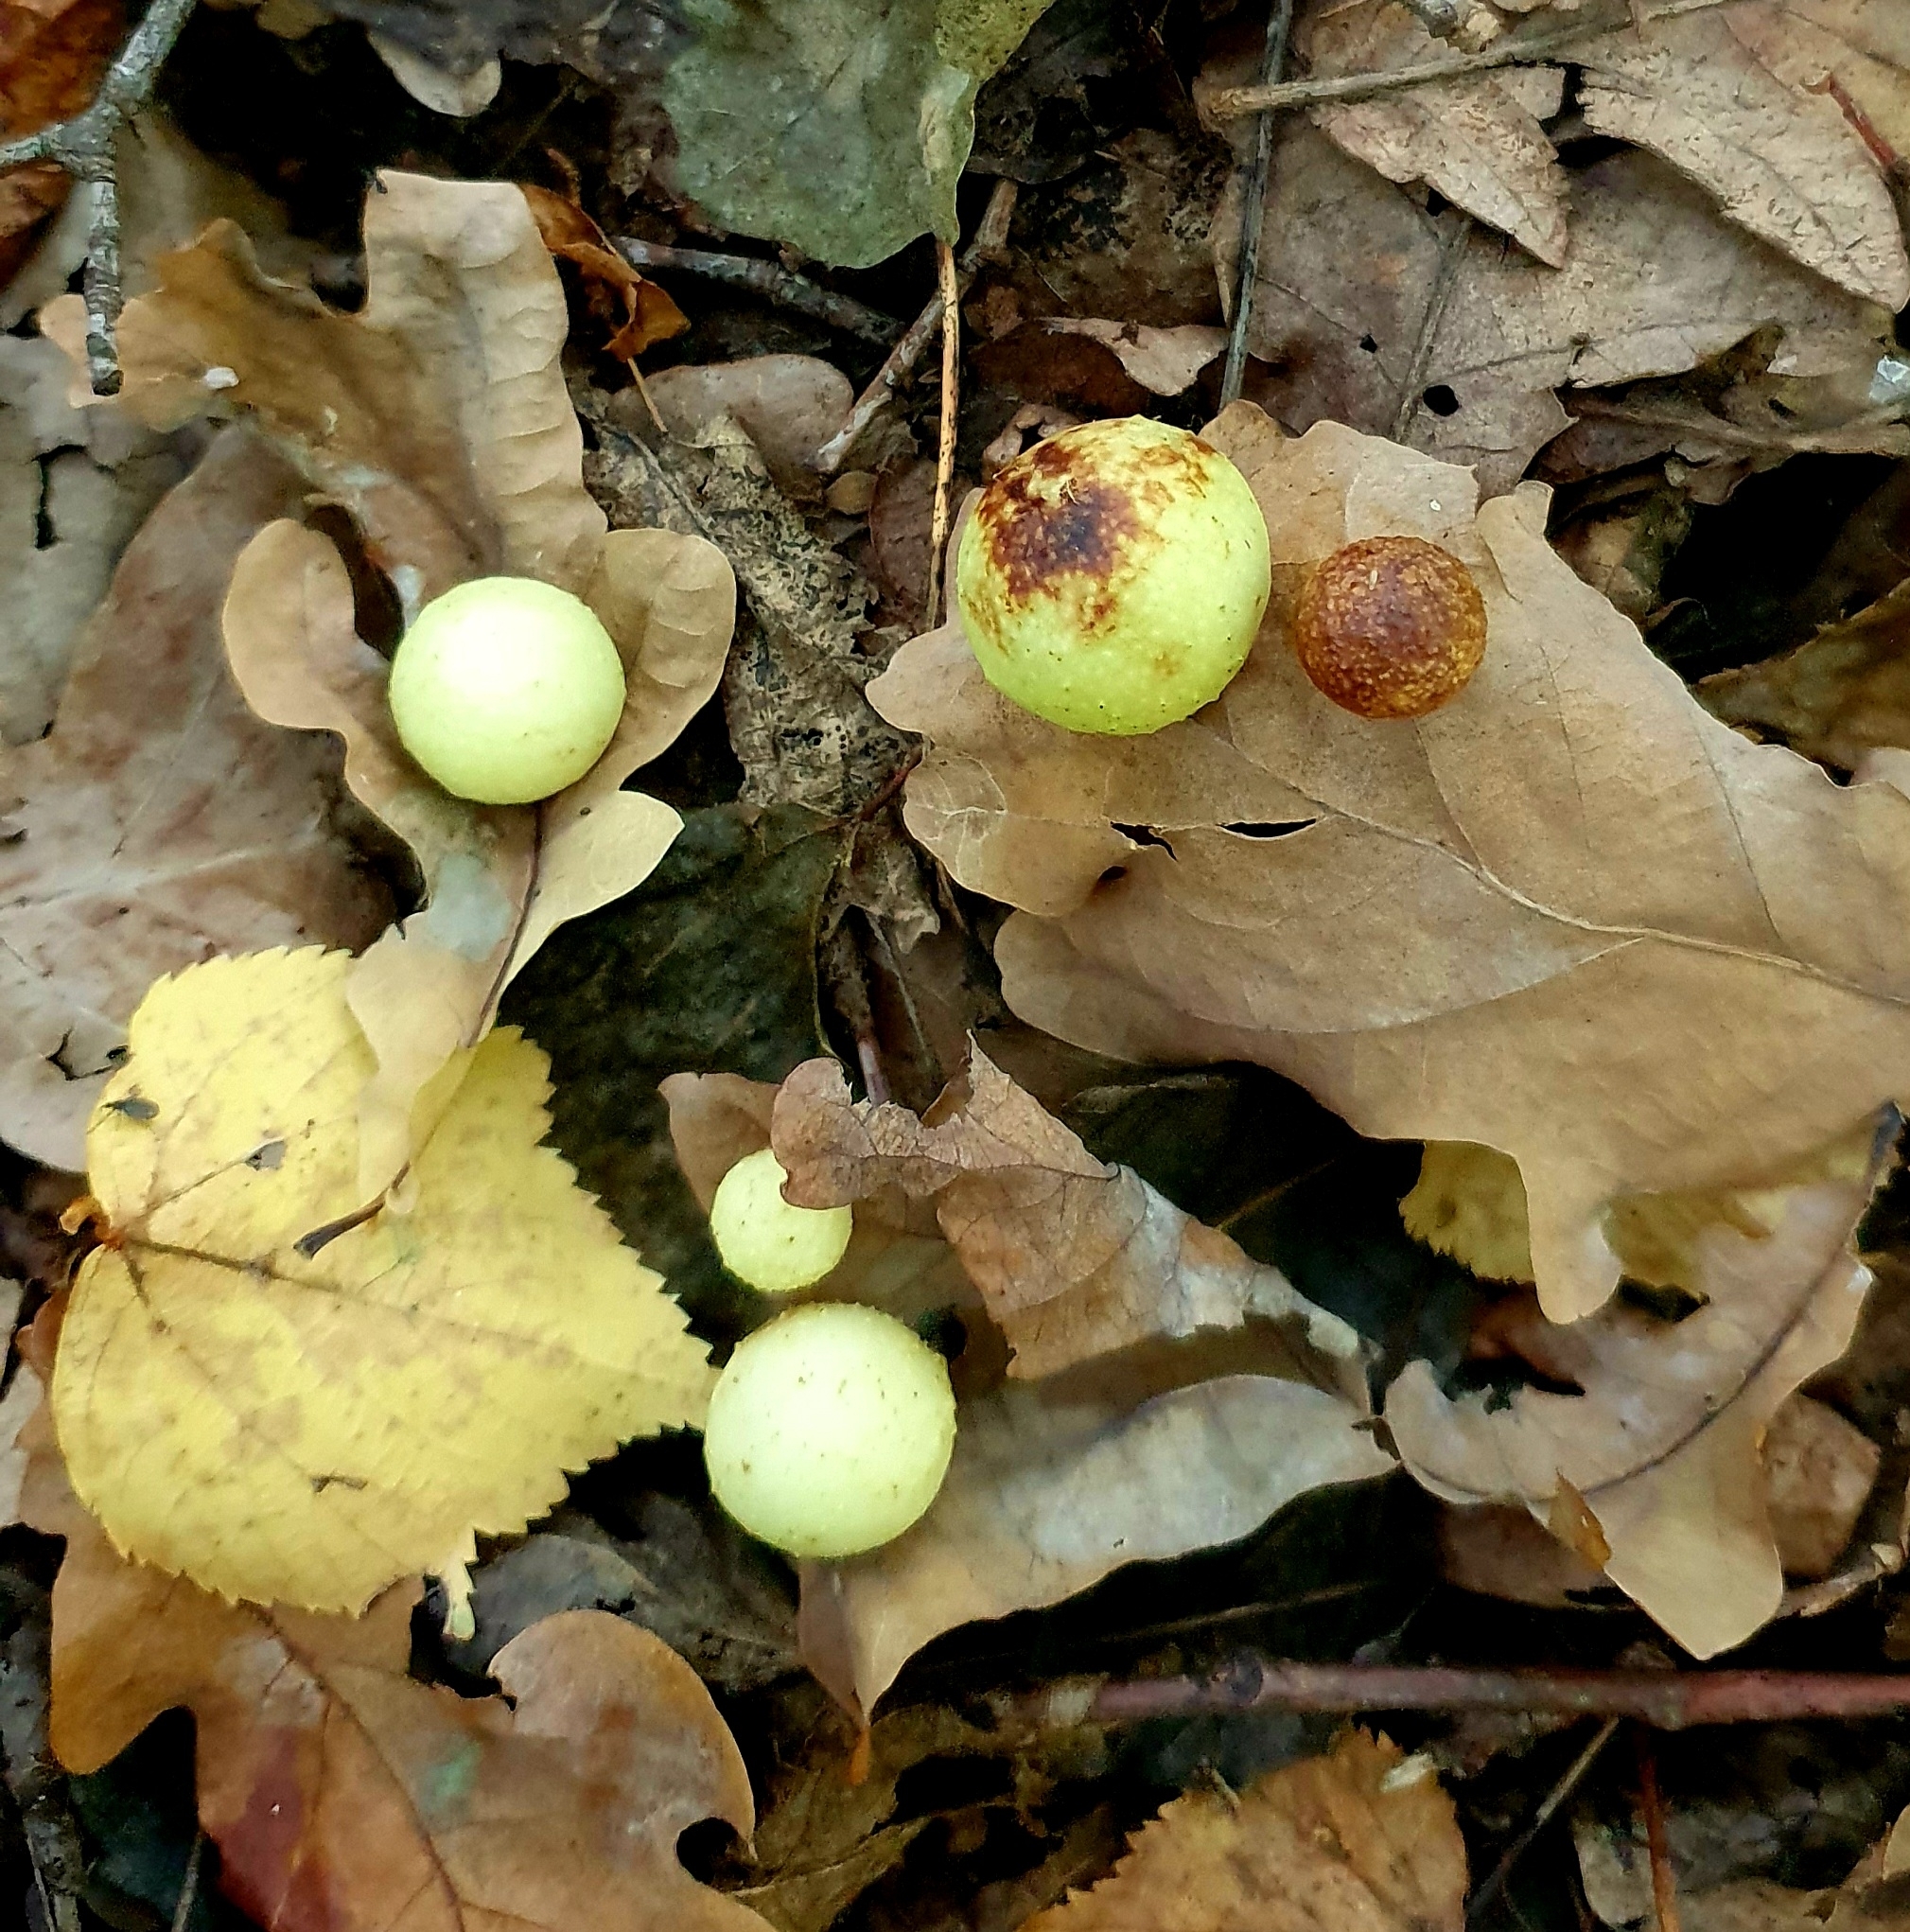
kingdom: Animalia
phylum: Arthropoda
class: Insecta
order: Hymenoptera
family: Cynipidae
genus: Cynips
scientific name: Cynips quercusfolii
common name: Cherry gall
